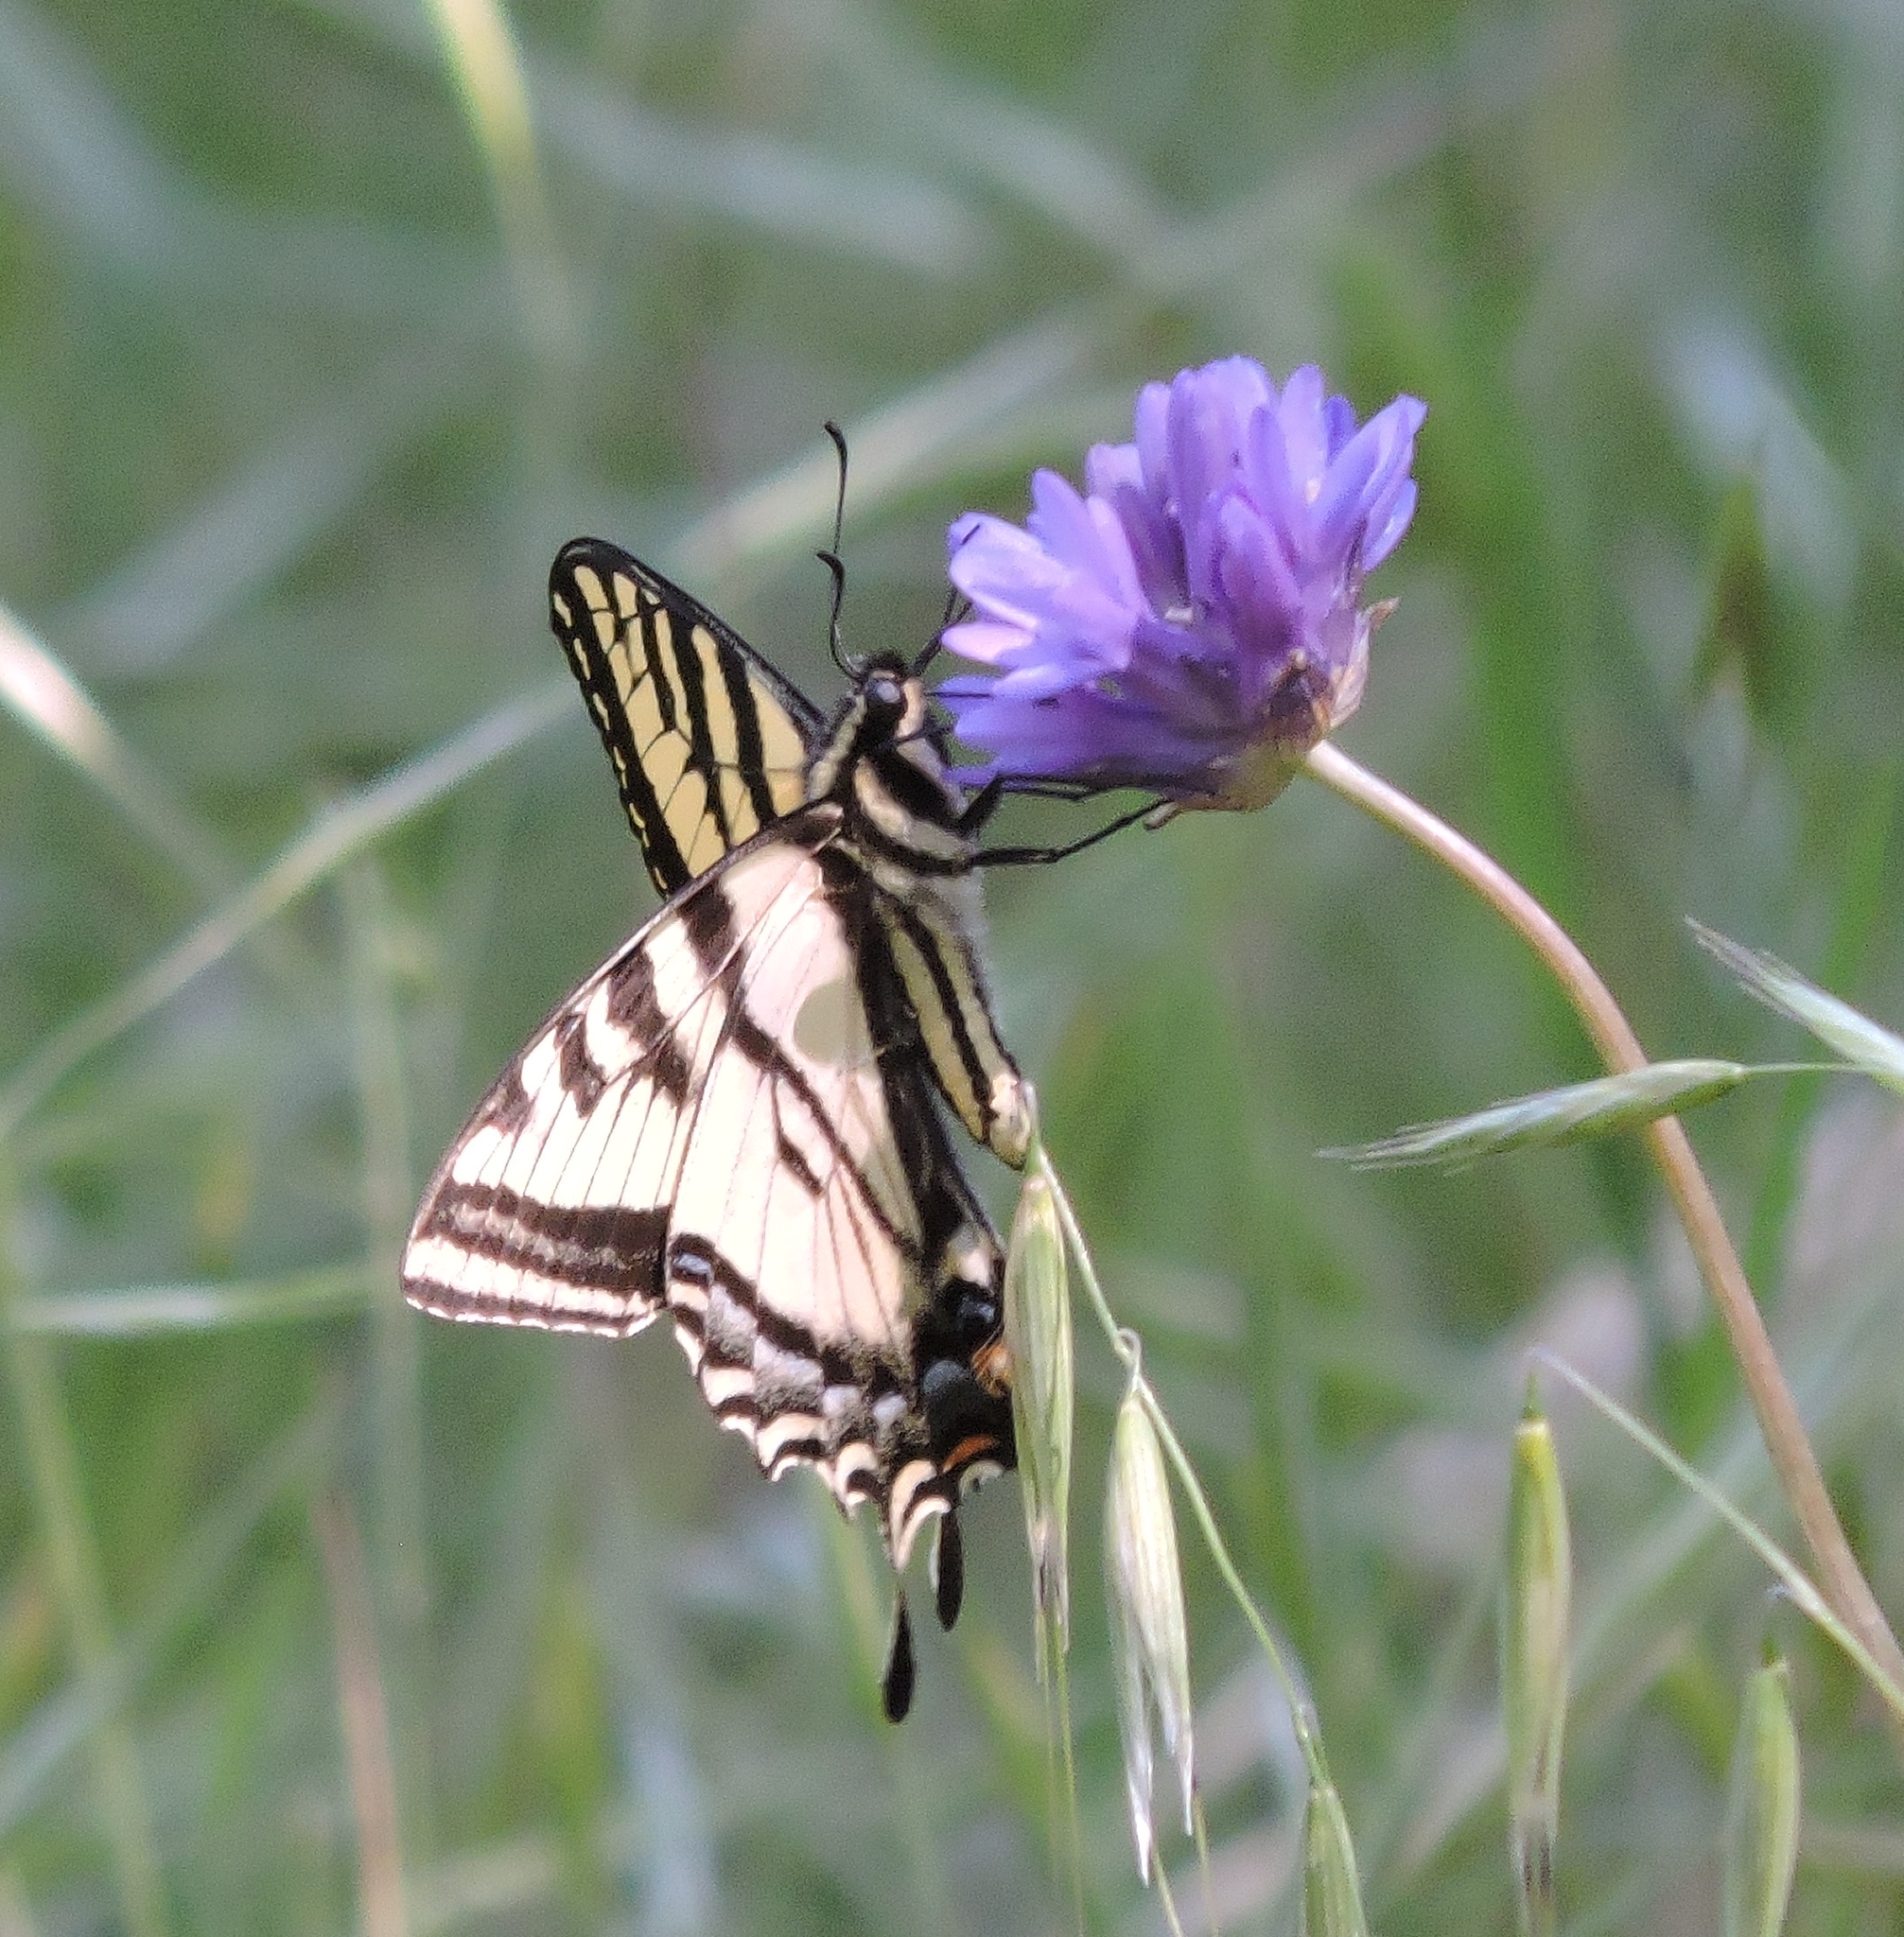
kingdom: Animalia
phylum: Arthropoda
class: Insecta
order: Lepidoptera
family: Papilionidae
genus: Papilio
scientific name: Papilio rutulus
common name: Western tiger swallowtail
